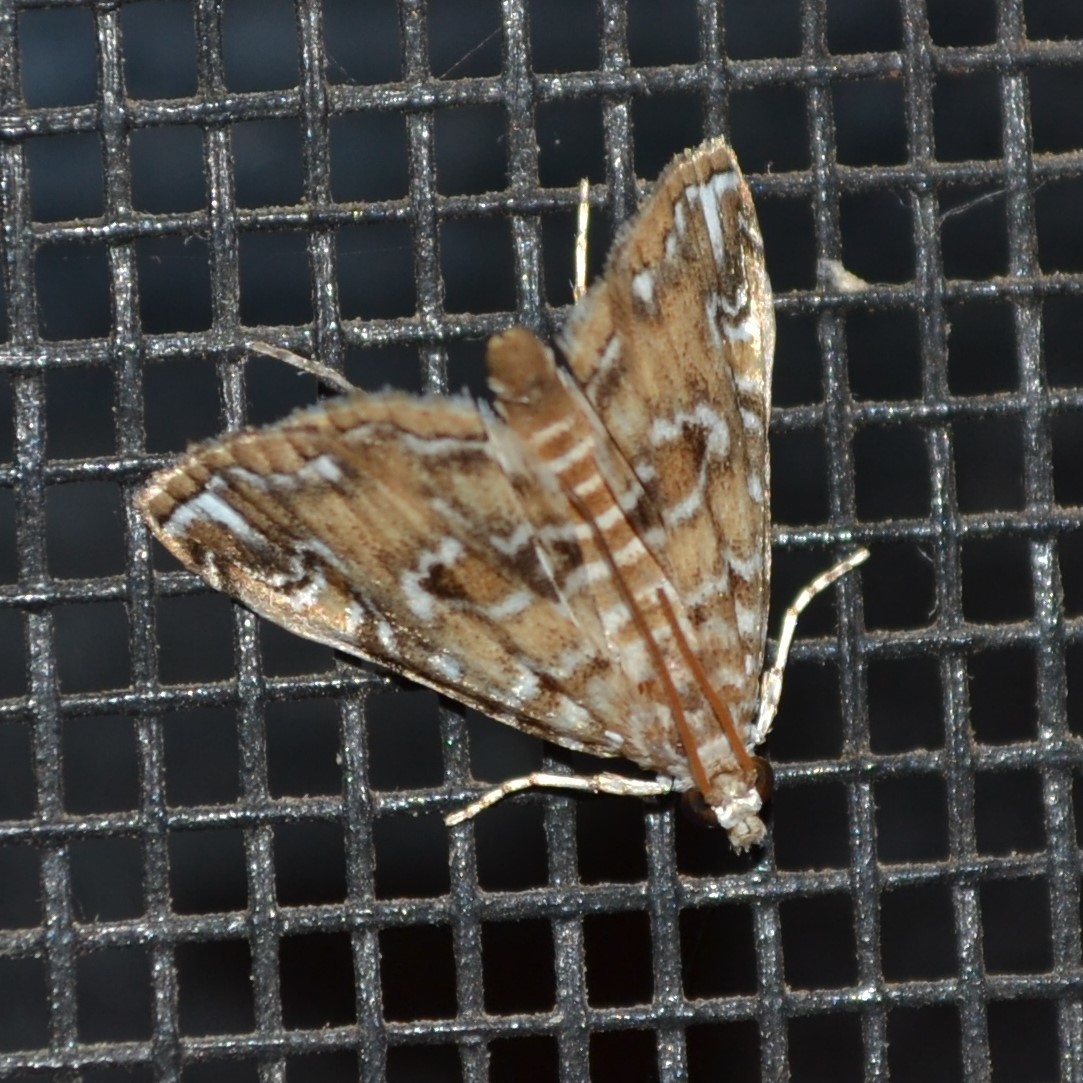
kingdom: Animalia
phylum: Arthropoda
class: Insecta
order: Lepidoptera
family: Crambidae
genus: Elophila
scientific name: Elophila gyralis
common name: Waterlily borer moth
